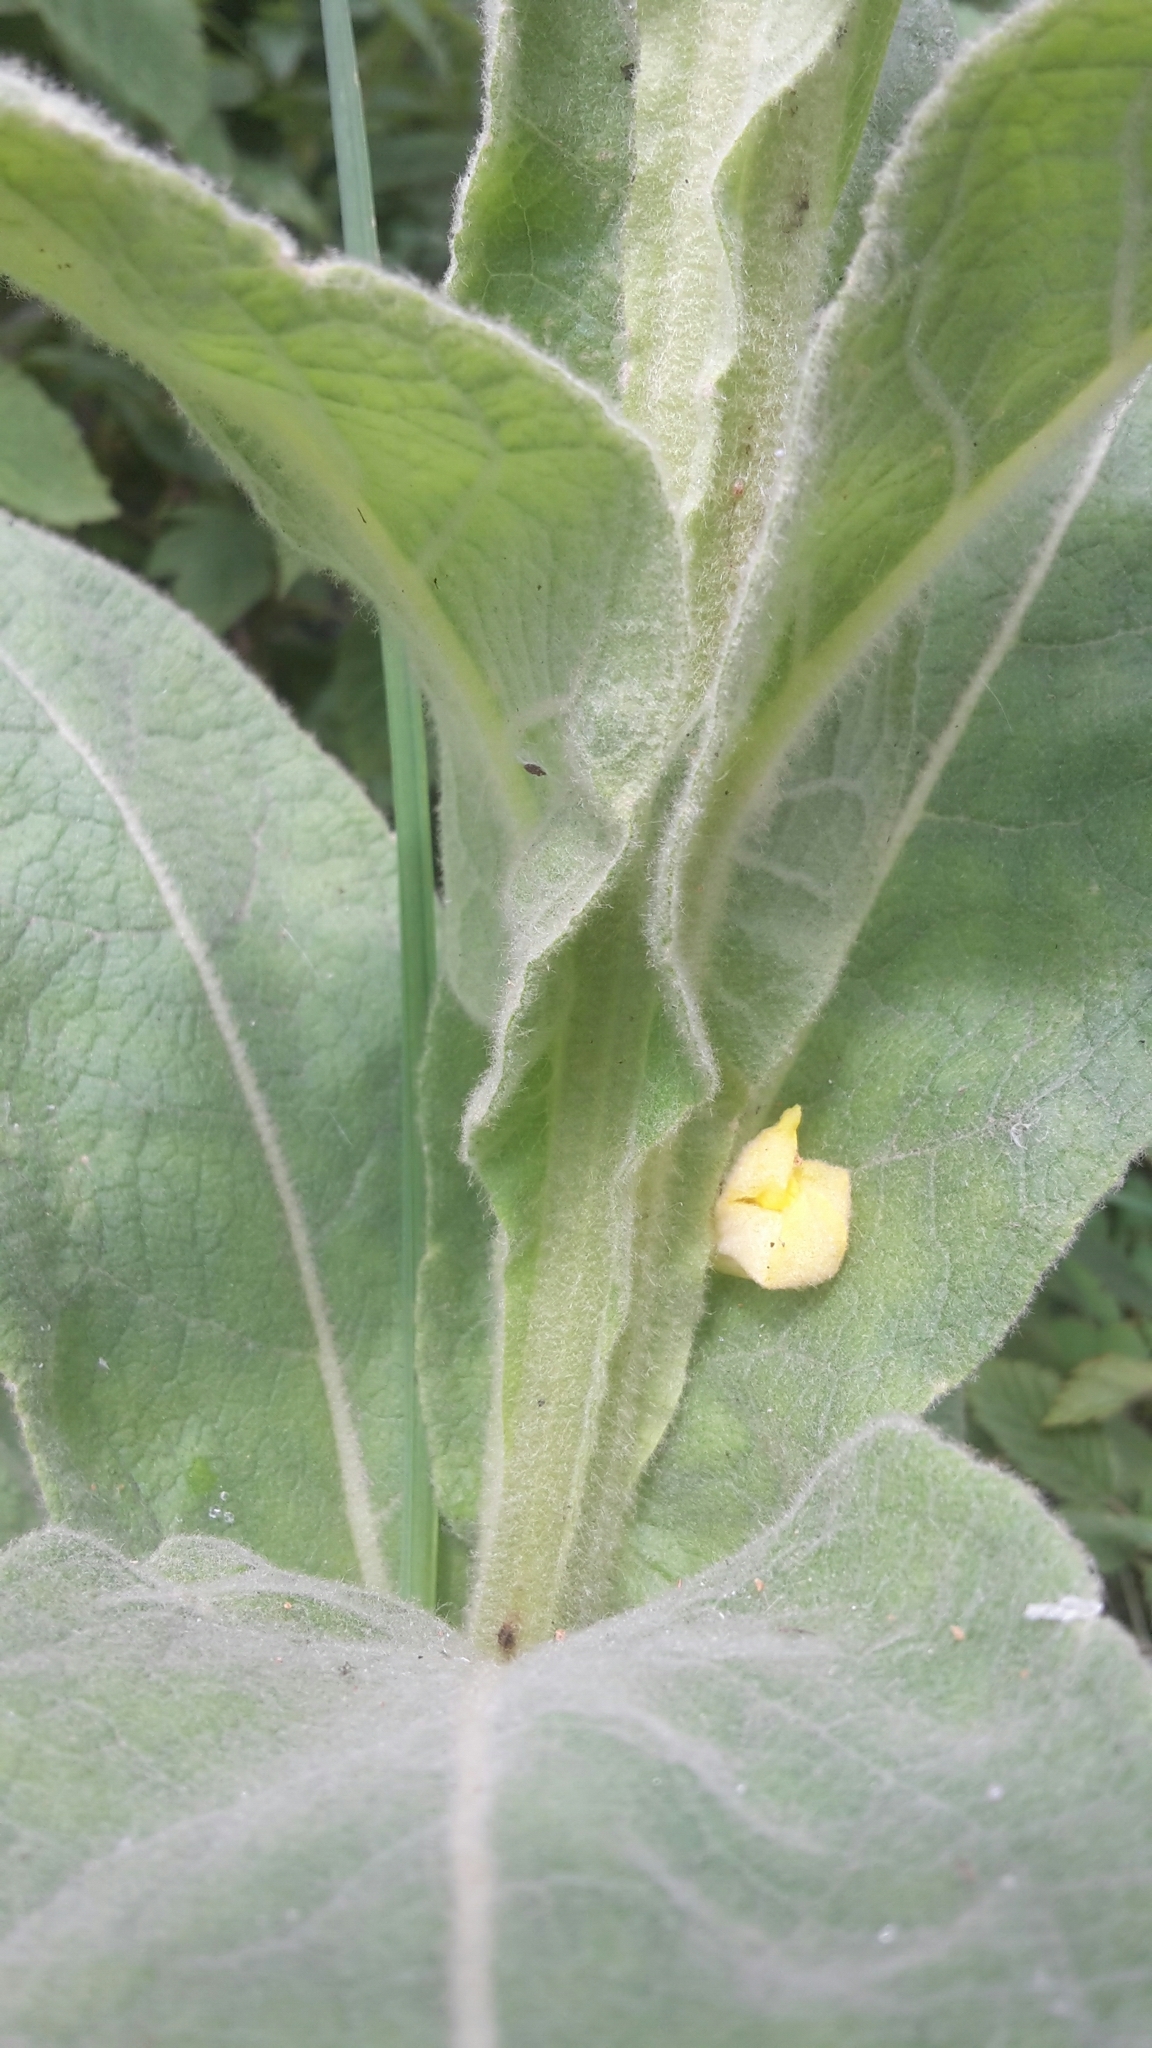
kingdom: Plantae
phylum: Tracheophyta
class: Magnoliopsida
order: Lamiales
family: Scrophulariaceae
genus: Verbascum
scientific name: Verbascum thapsus
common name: Common mullein
